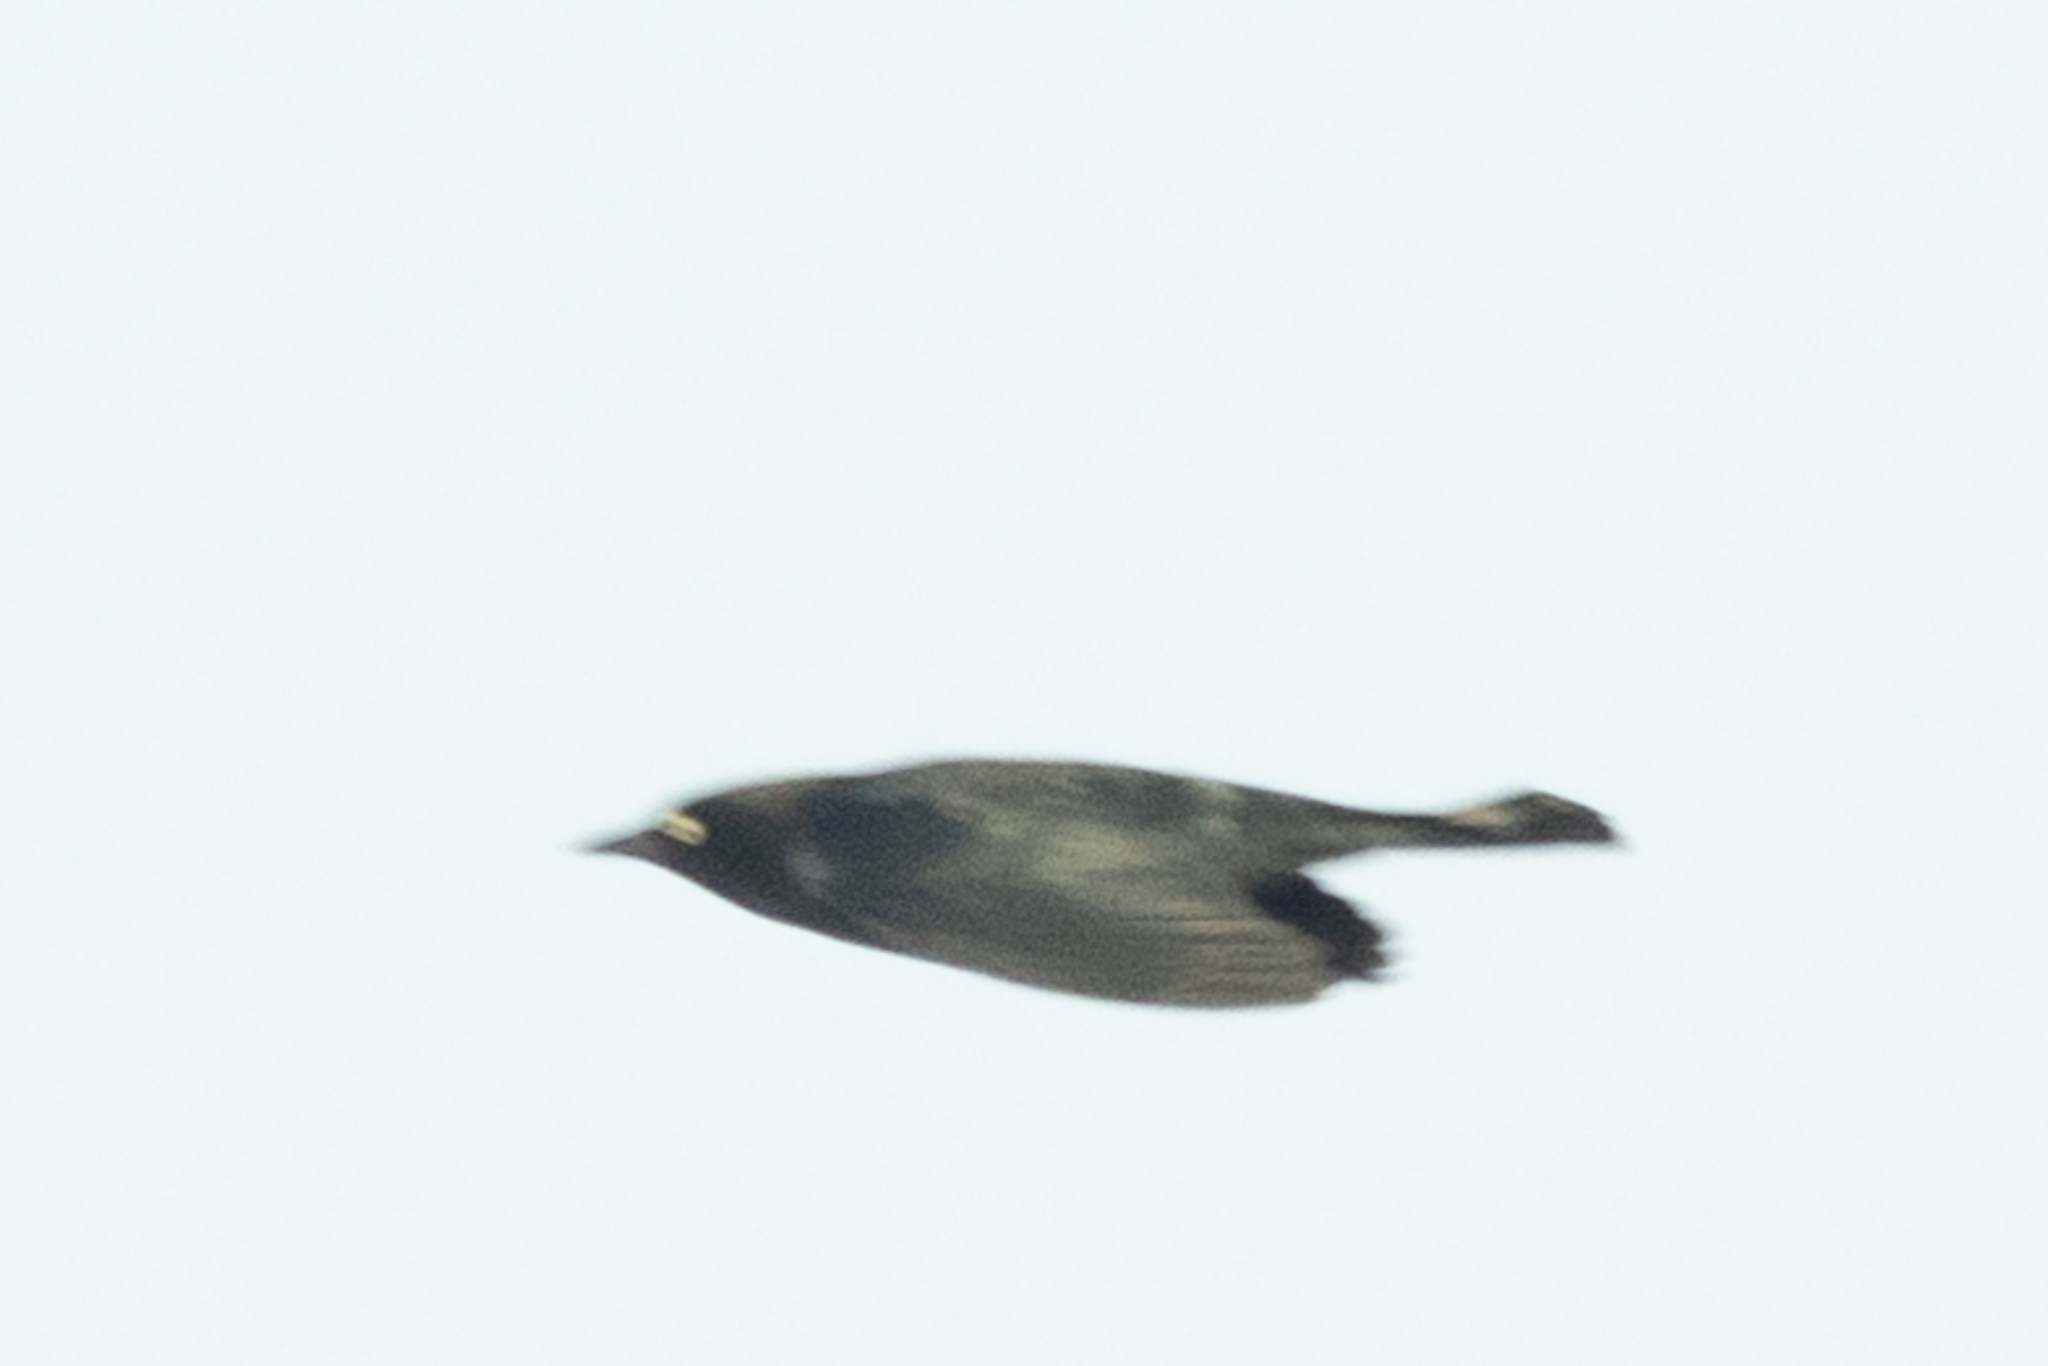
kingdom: Animalia
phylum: Chordata
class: Aves
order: Passeriformes
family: Icteridae
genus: Euphagus
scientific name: Euphagus carolinus
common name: Rusty blackbird
